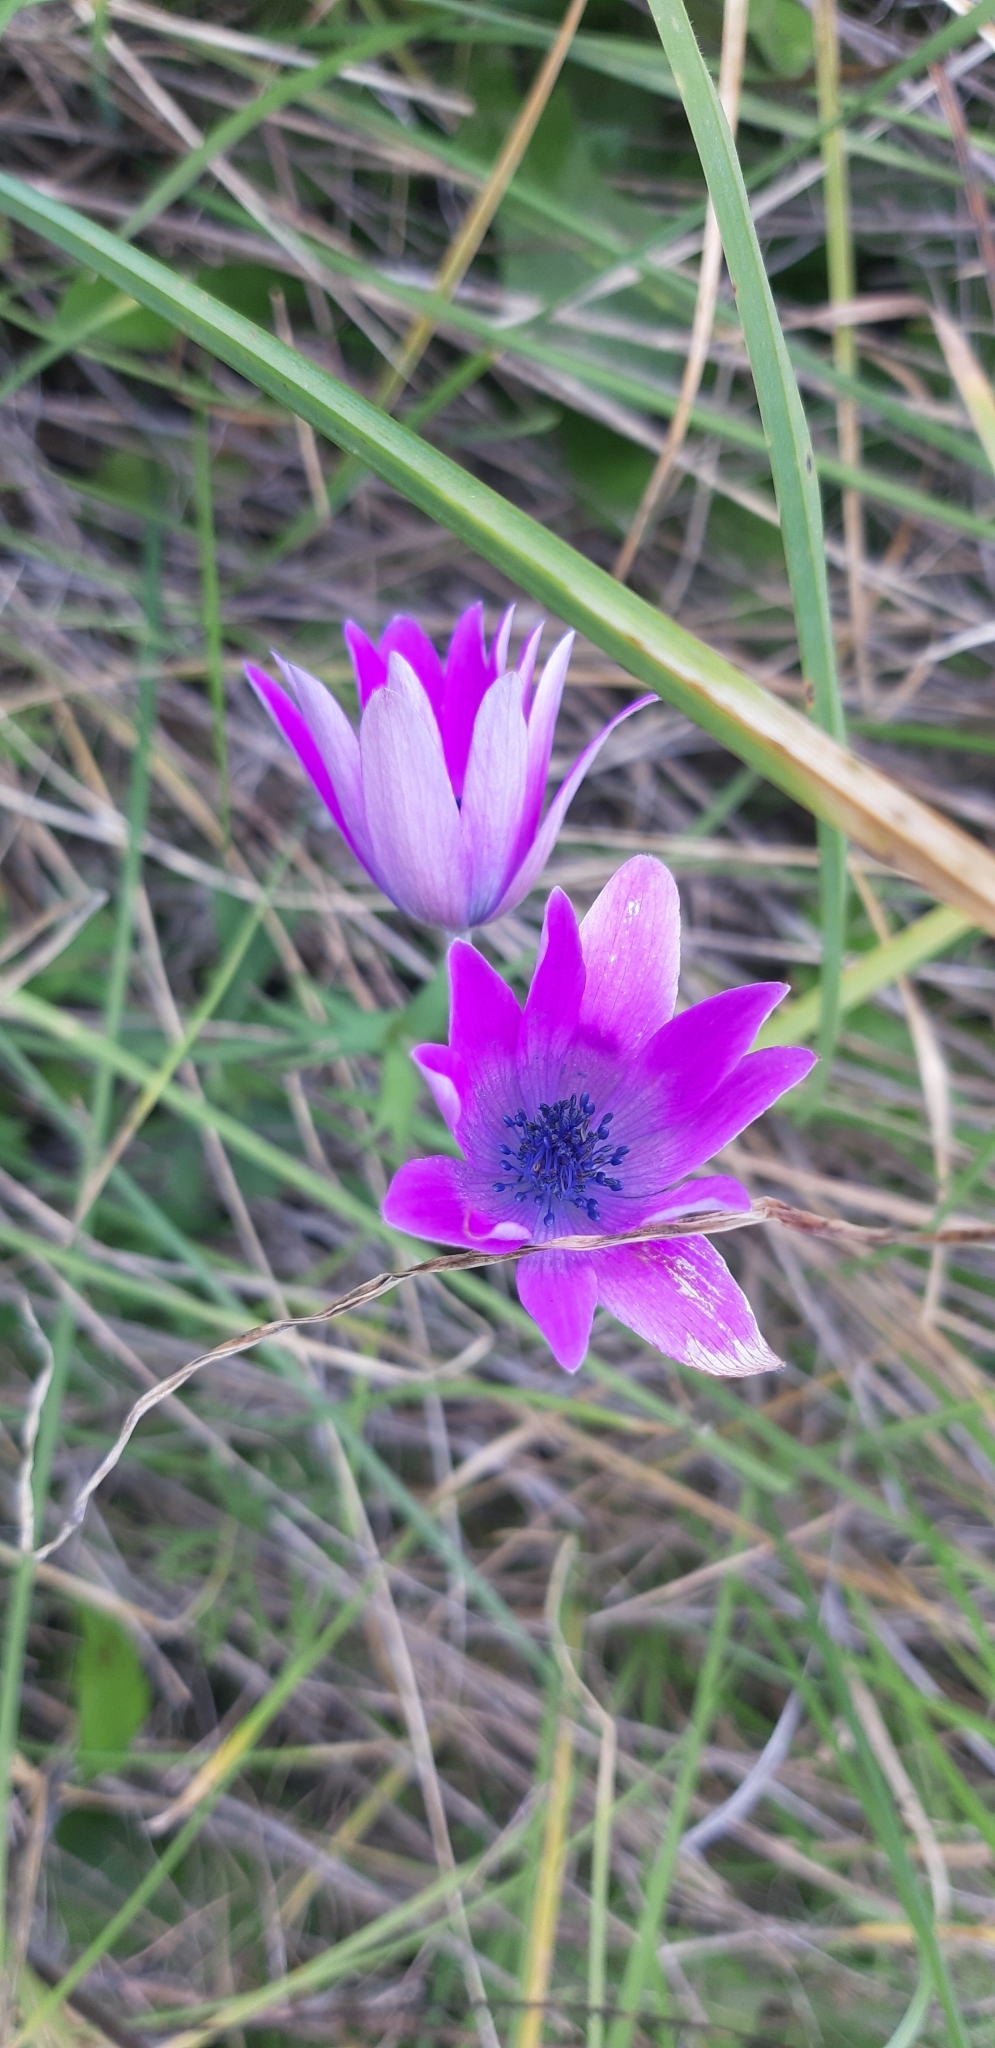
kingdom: Plantae
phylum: Tracheophyta
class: Magnoliopsida
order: Ranunculales
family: Ranunculaceae
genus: Anemone
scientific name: Anemone hortensis
